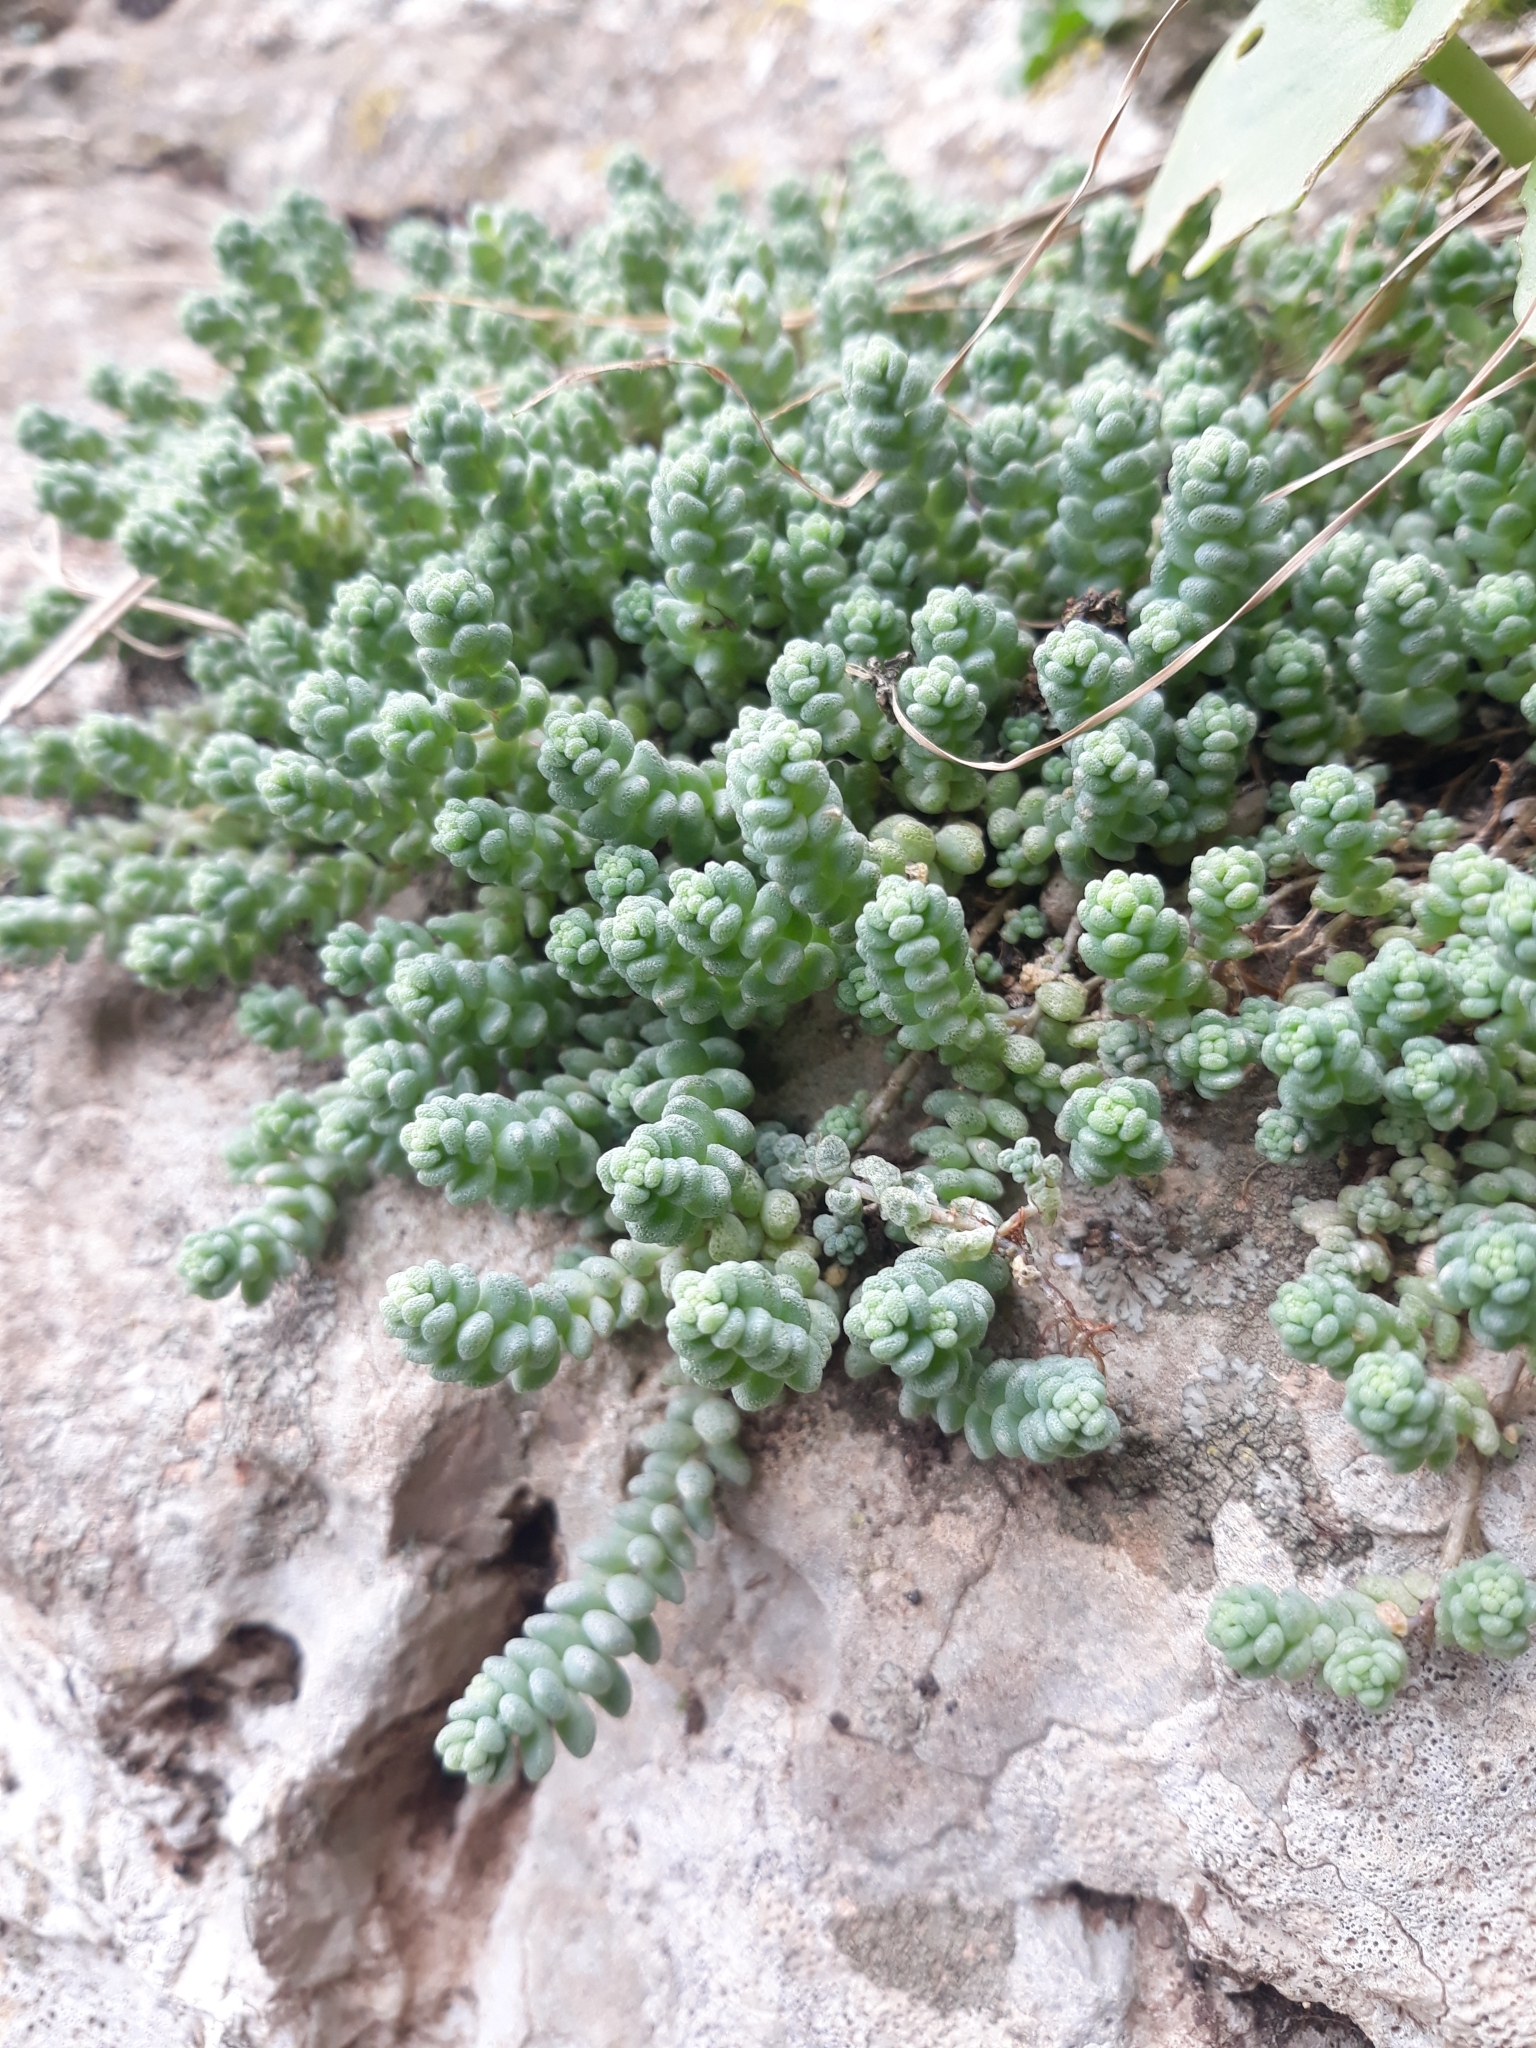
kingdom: Plantae
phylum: Tracheophyta
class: Magnoliopsida
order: Saxifragales
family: Crassulaceae
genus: Sedum
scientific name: Sedum dasyphyllum
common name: Thick-leaf stonecrop
